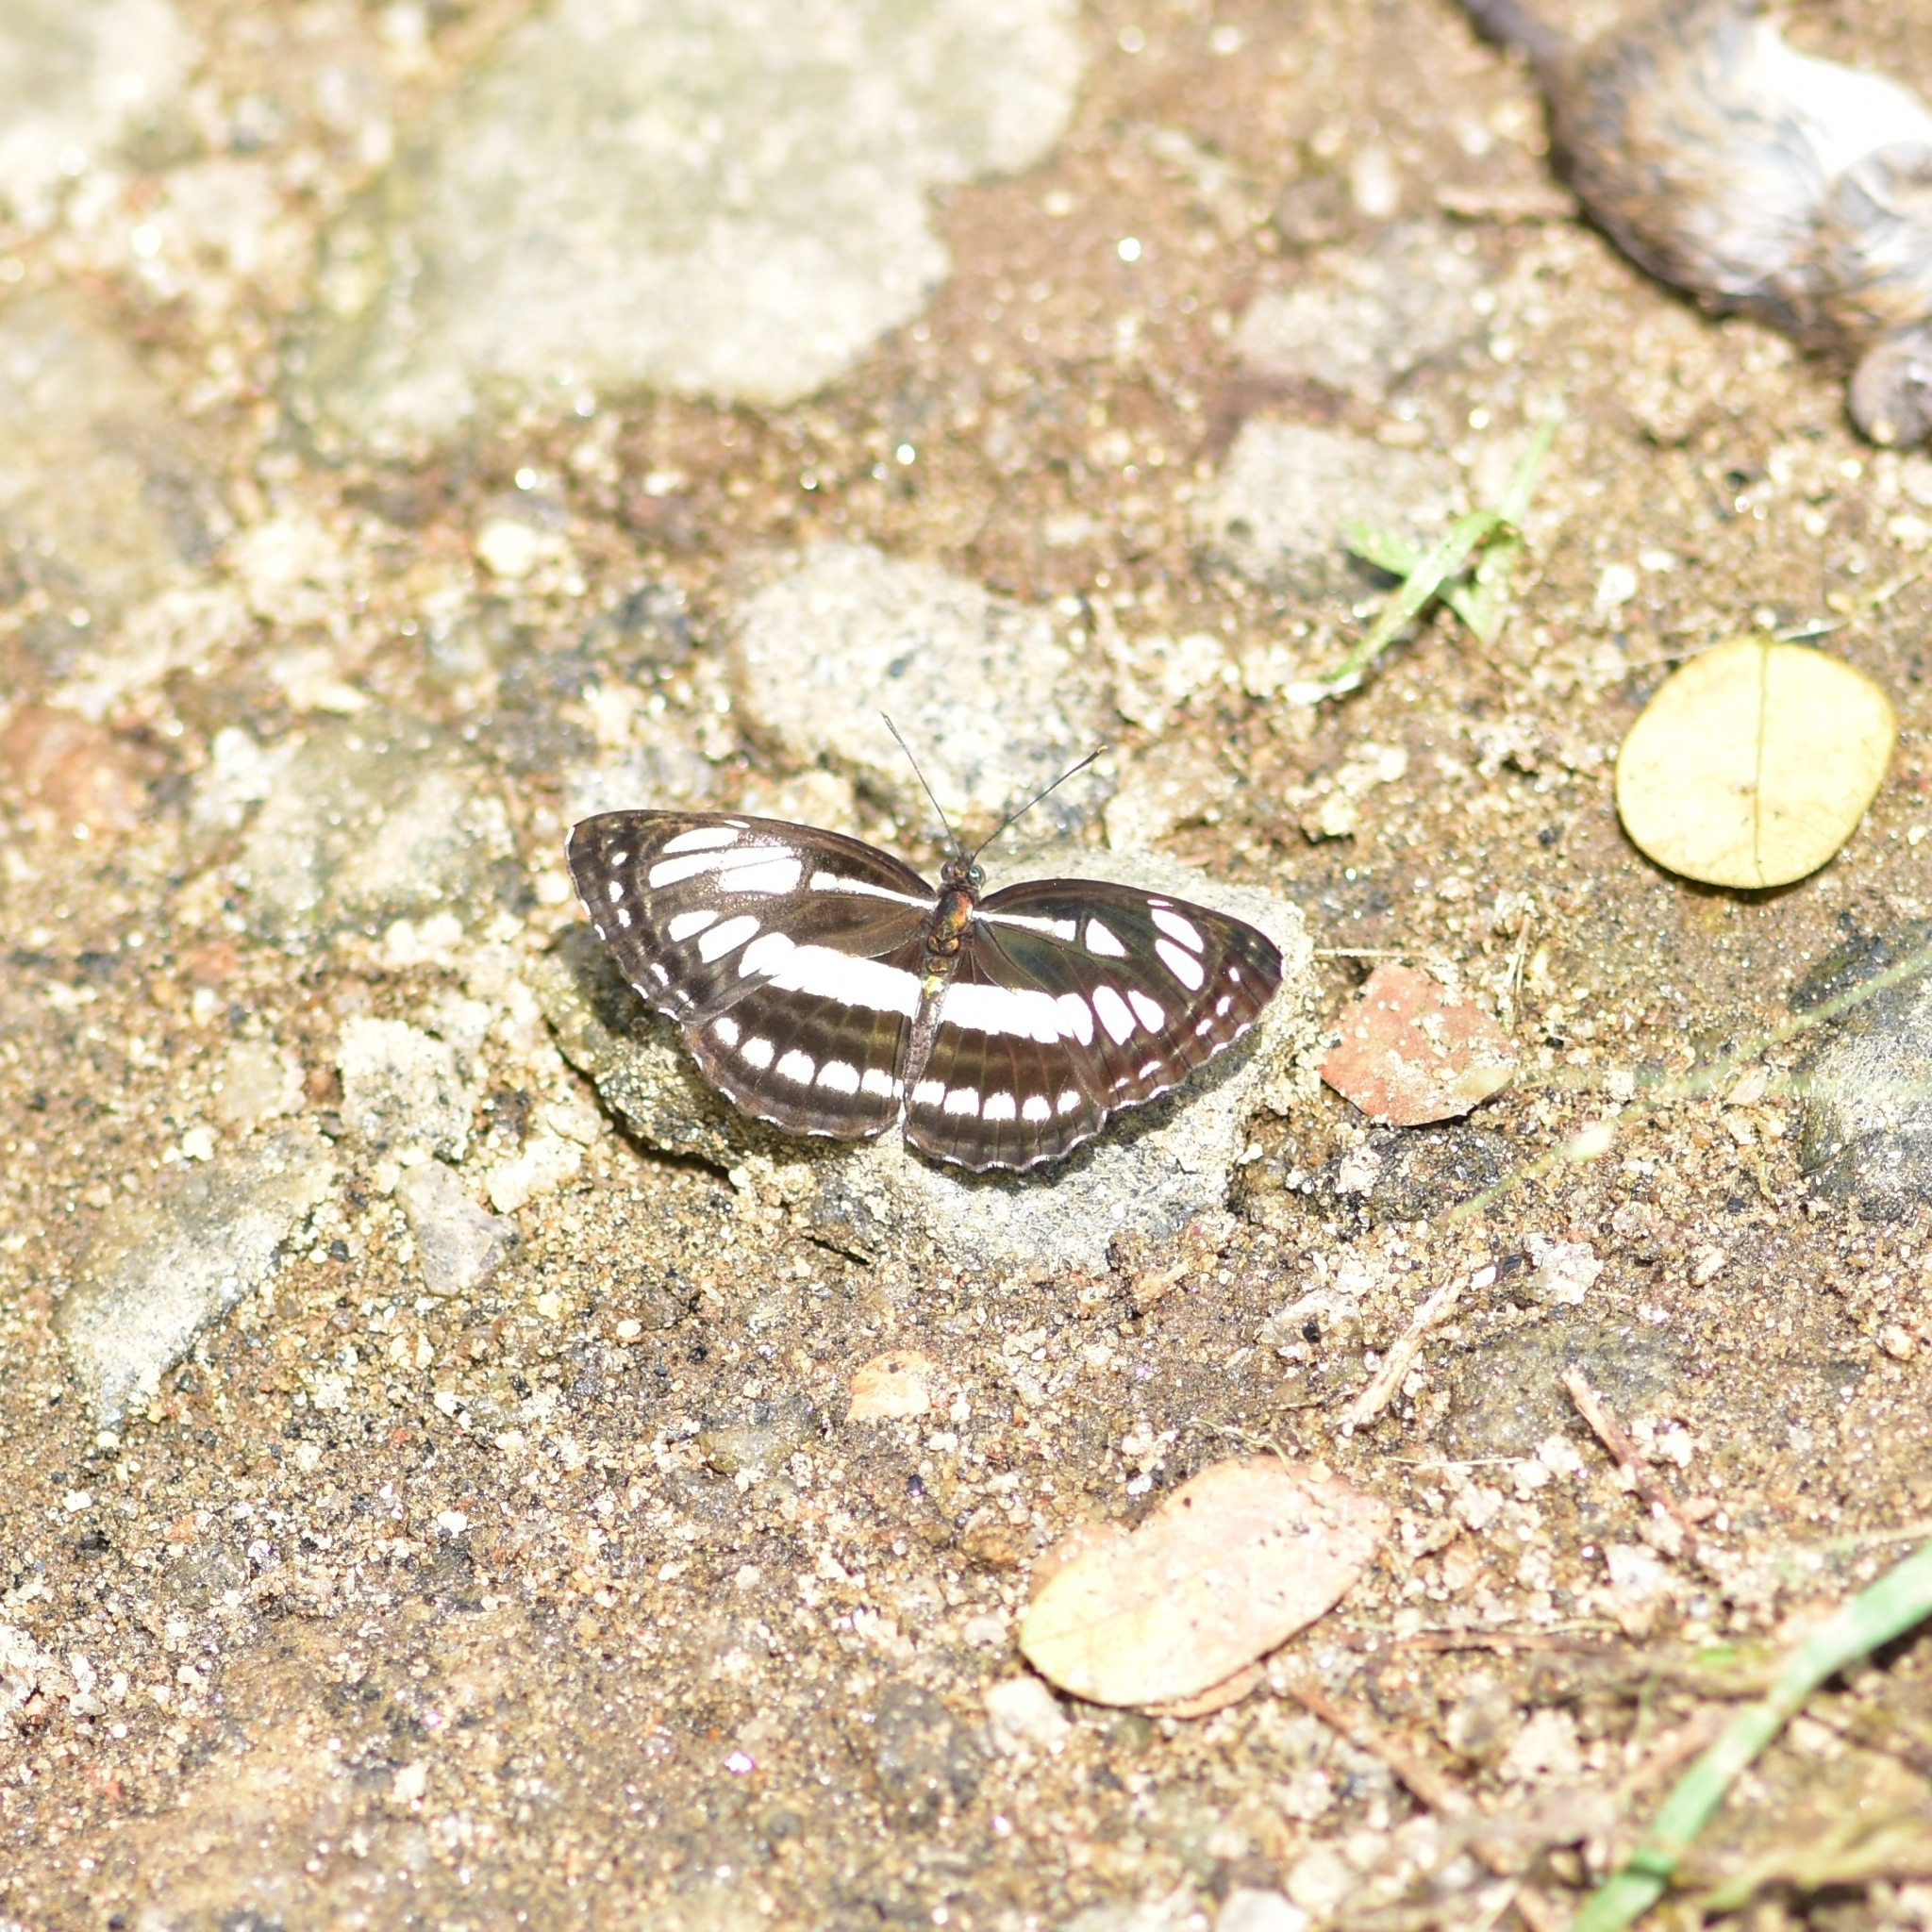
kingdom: Animalia
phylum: Arthropoda
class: Insecta
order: Lepidoptera
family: Nymphalidae
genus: Neptis
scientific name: Neptis hylas
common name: Common sailer
